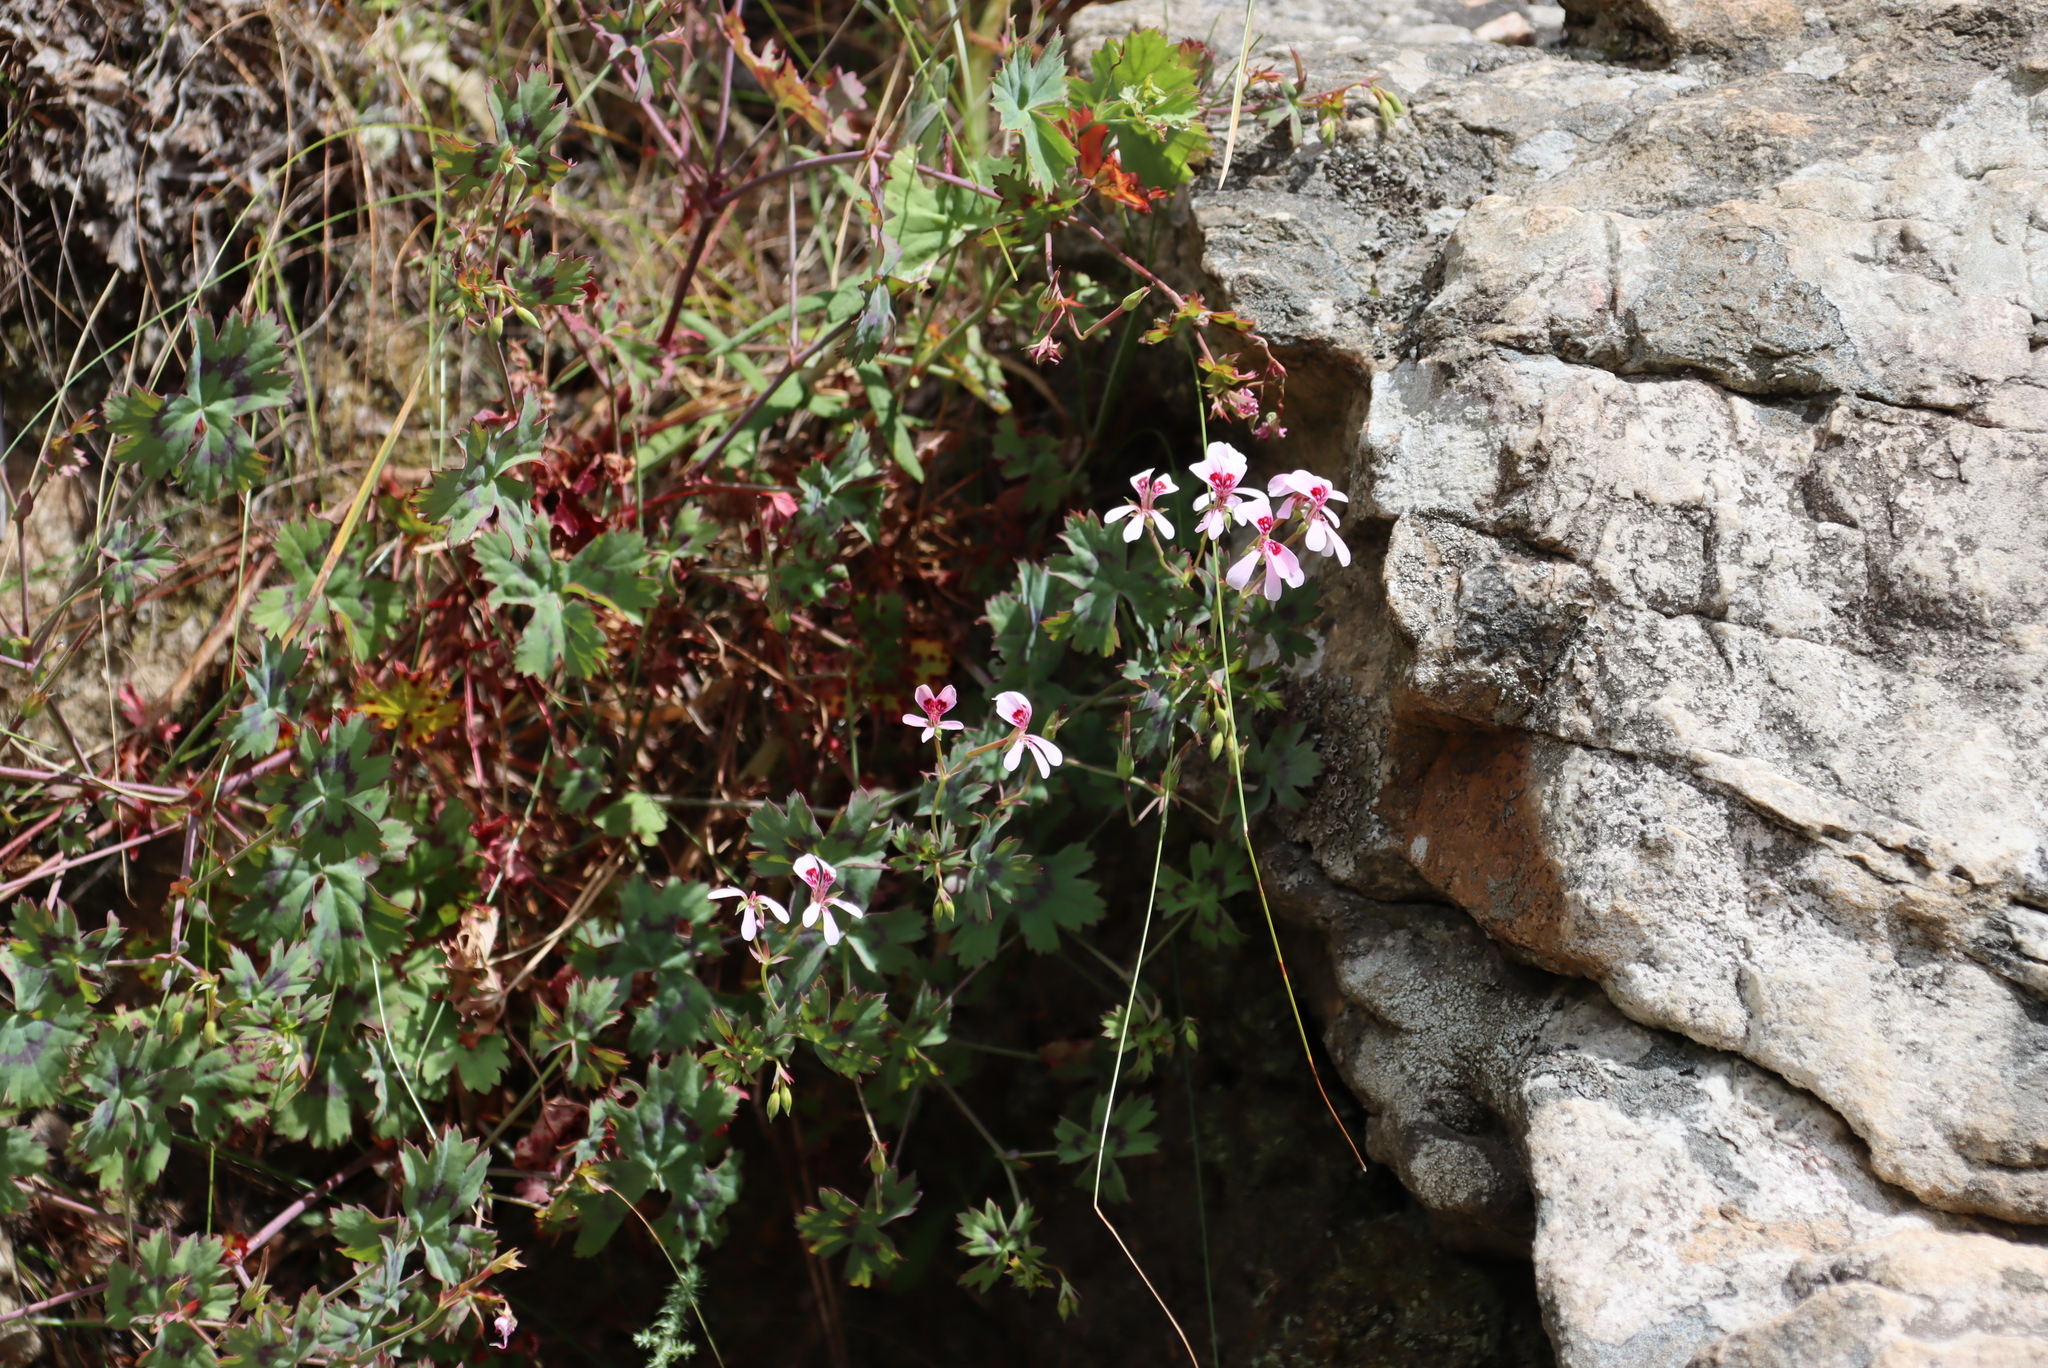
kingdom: Plantae
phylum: Tracheophyta
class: Magnoliopsida
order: Geraniales
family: Geraniaceae
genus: Pelargonium
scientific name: Pelargonium patulum
